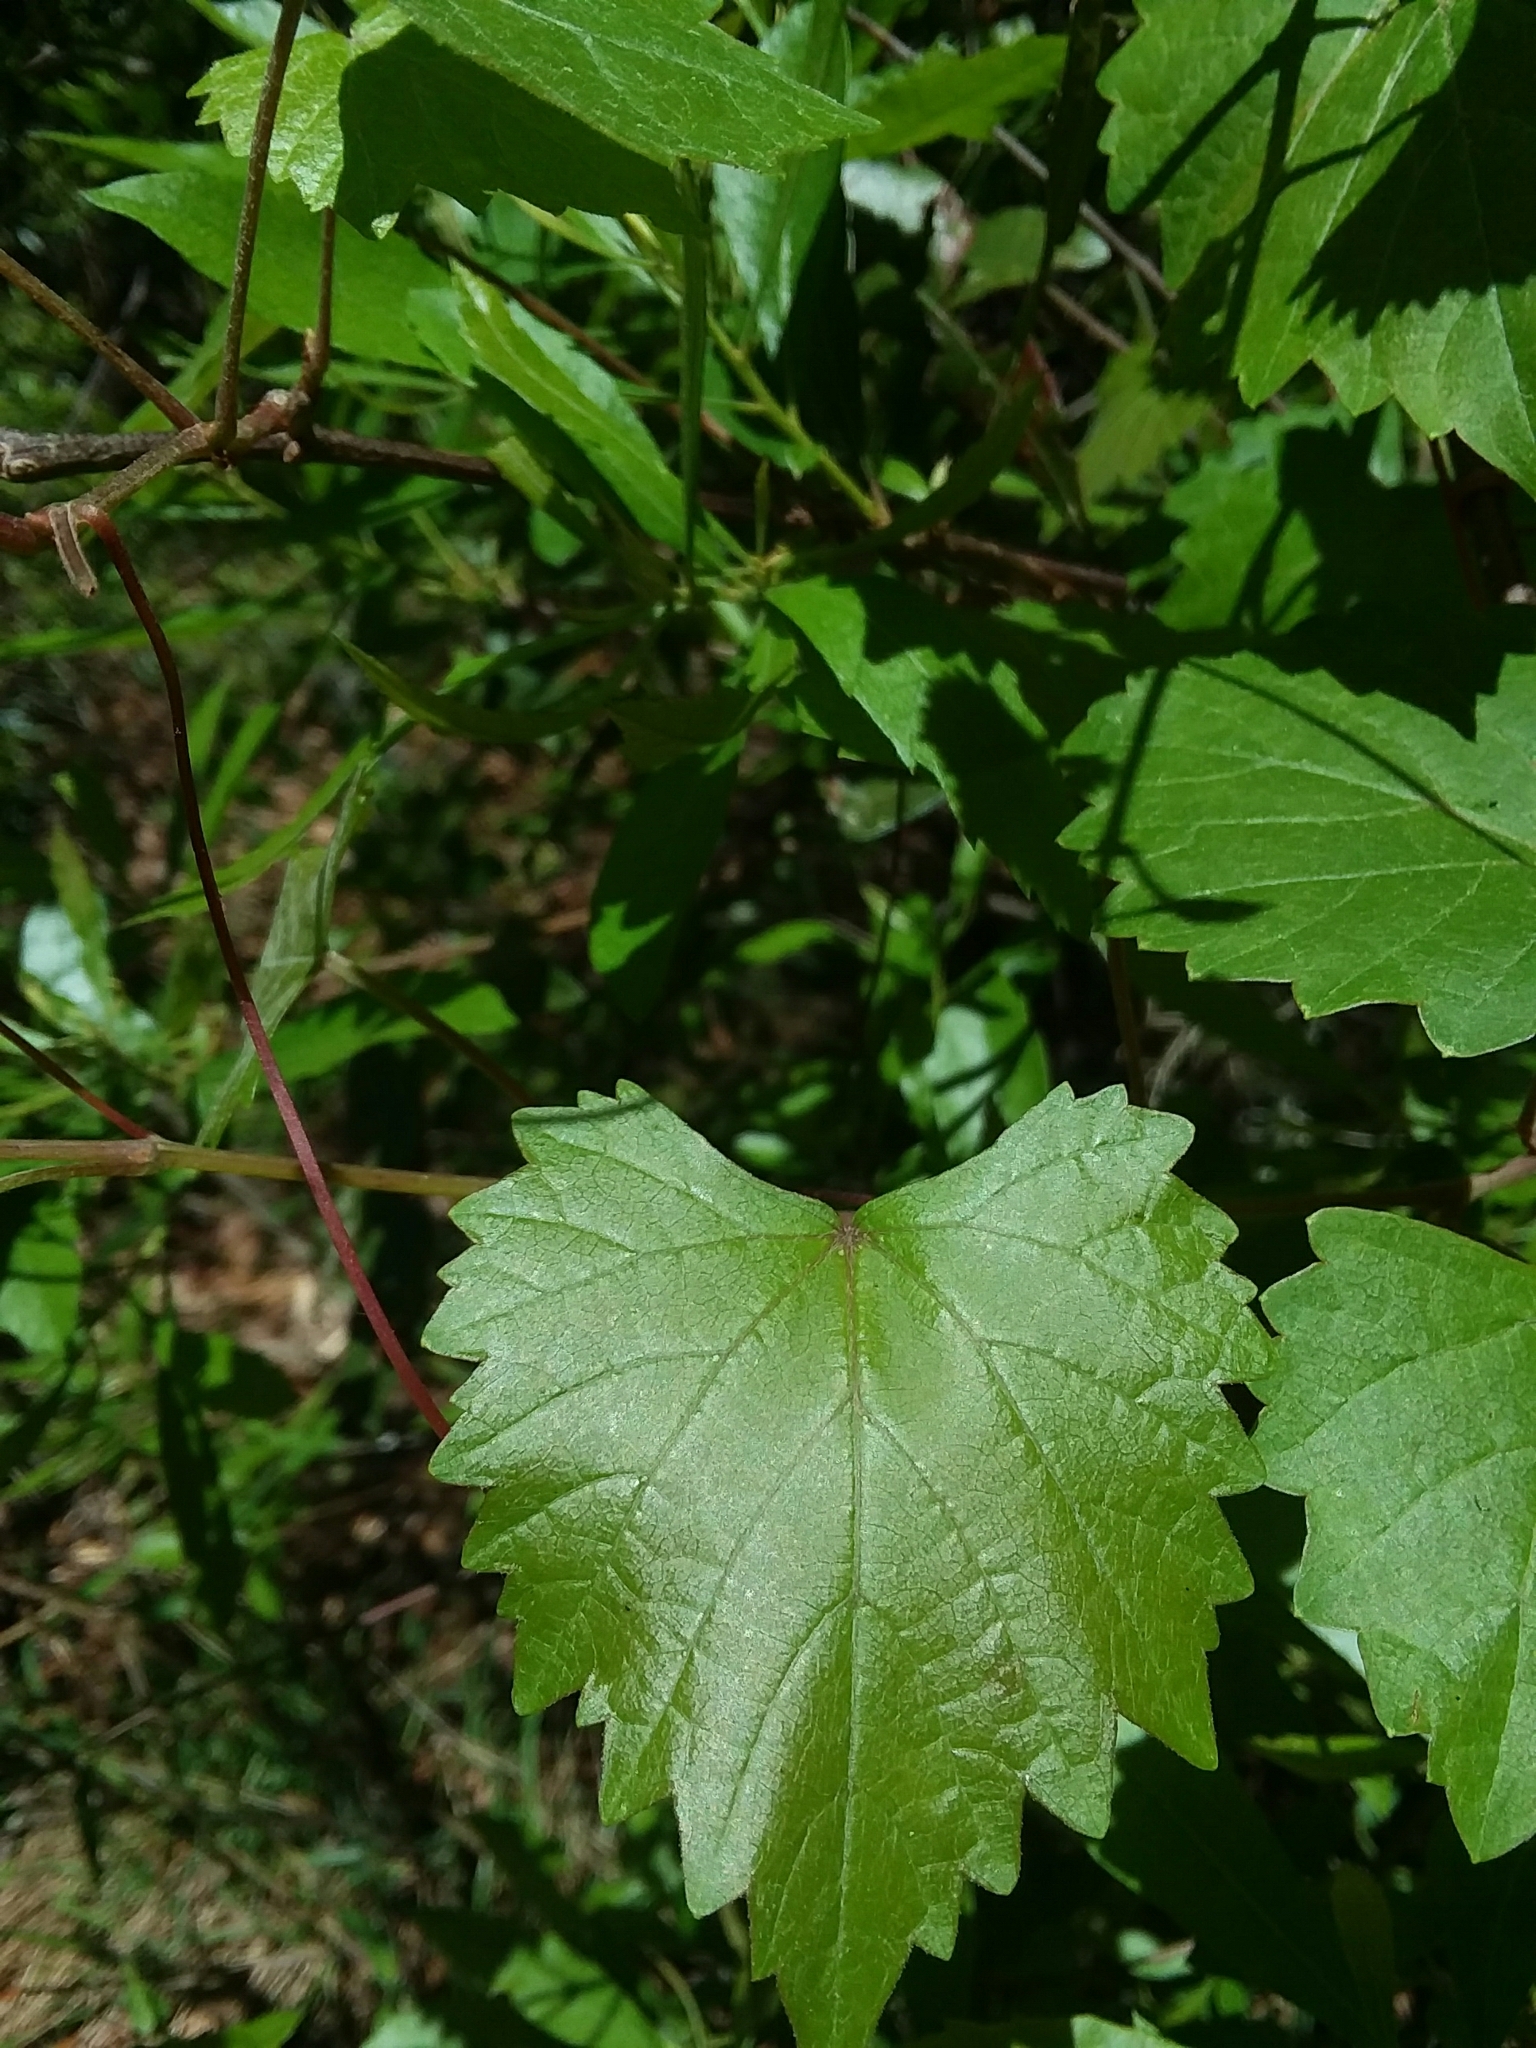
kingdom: Plantae
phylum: Tracheophyta
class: Magnoliopsida
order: Vitales
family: Vitaceae
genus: Vitis
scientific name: Vitis rotundifolia
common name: Muscadine grape
